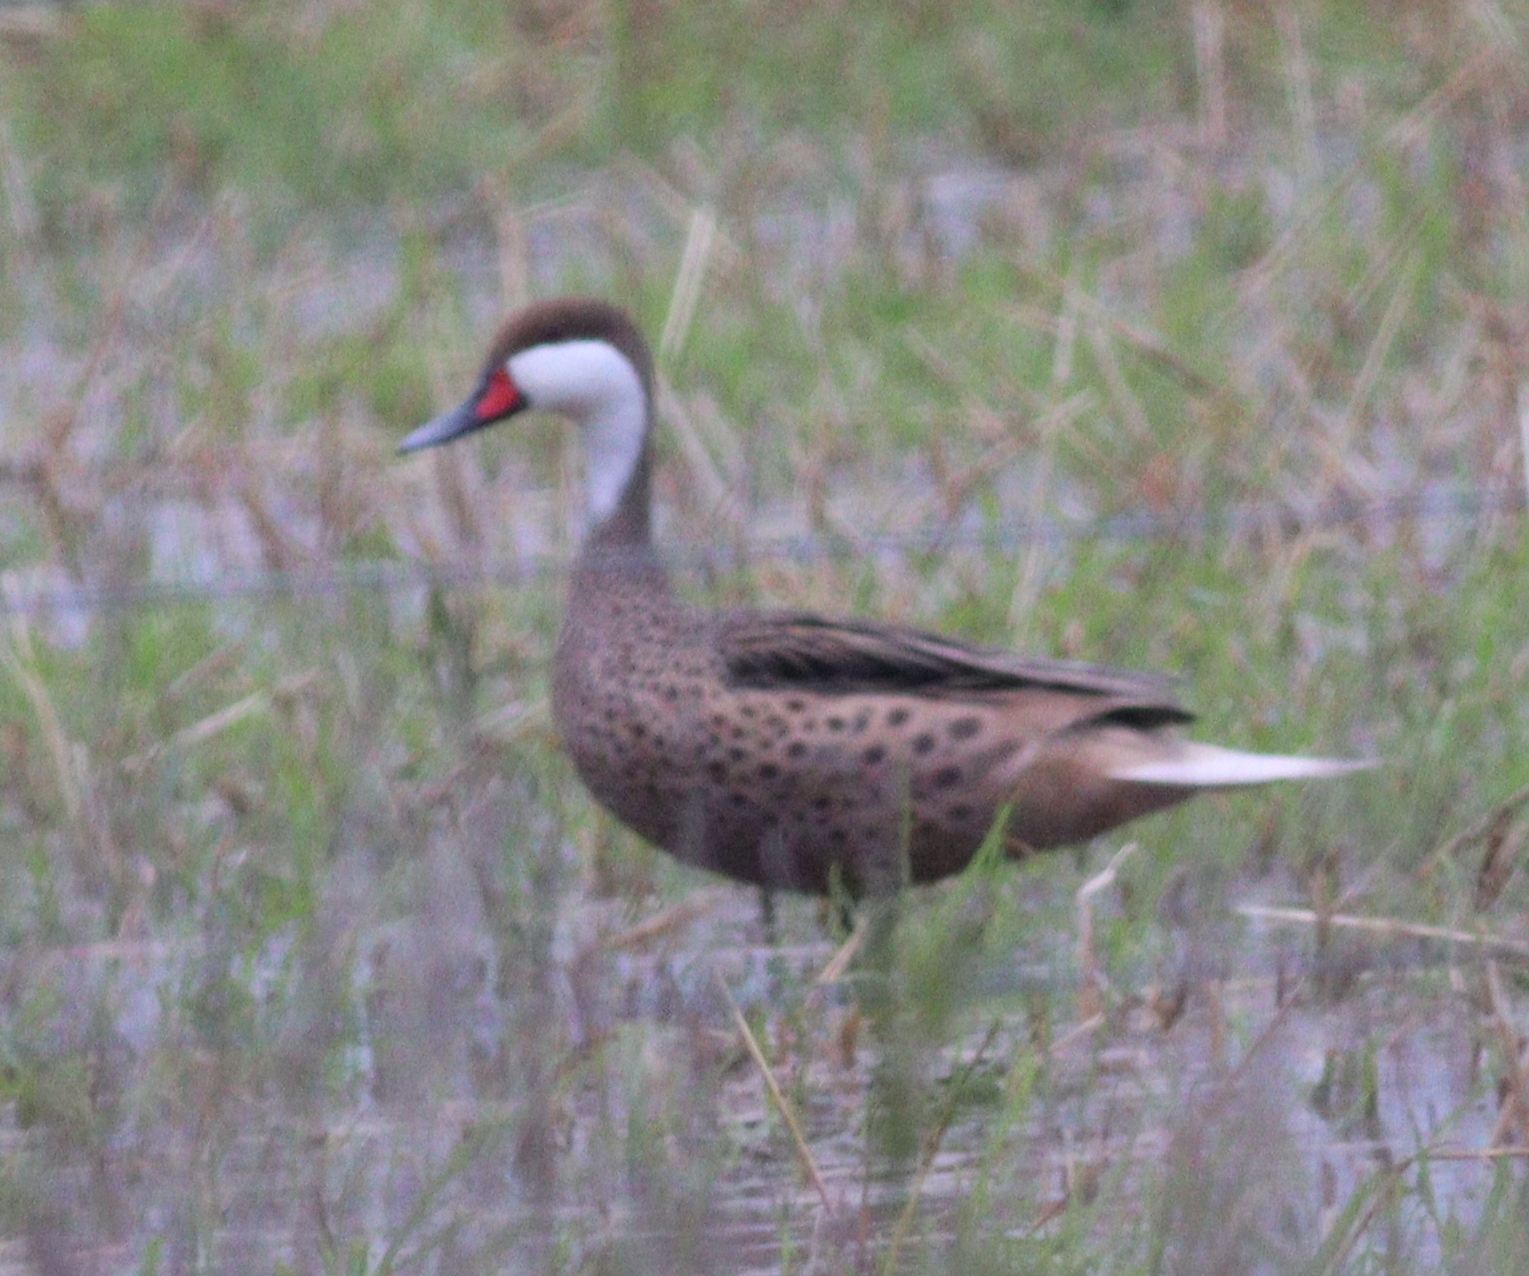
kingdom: Animalia
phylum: Chordata
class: Aves
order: Anseriformes
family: Anatidae
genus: Anas
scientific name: Anas bahamensis
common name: White-cheeked pintail
